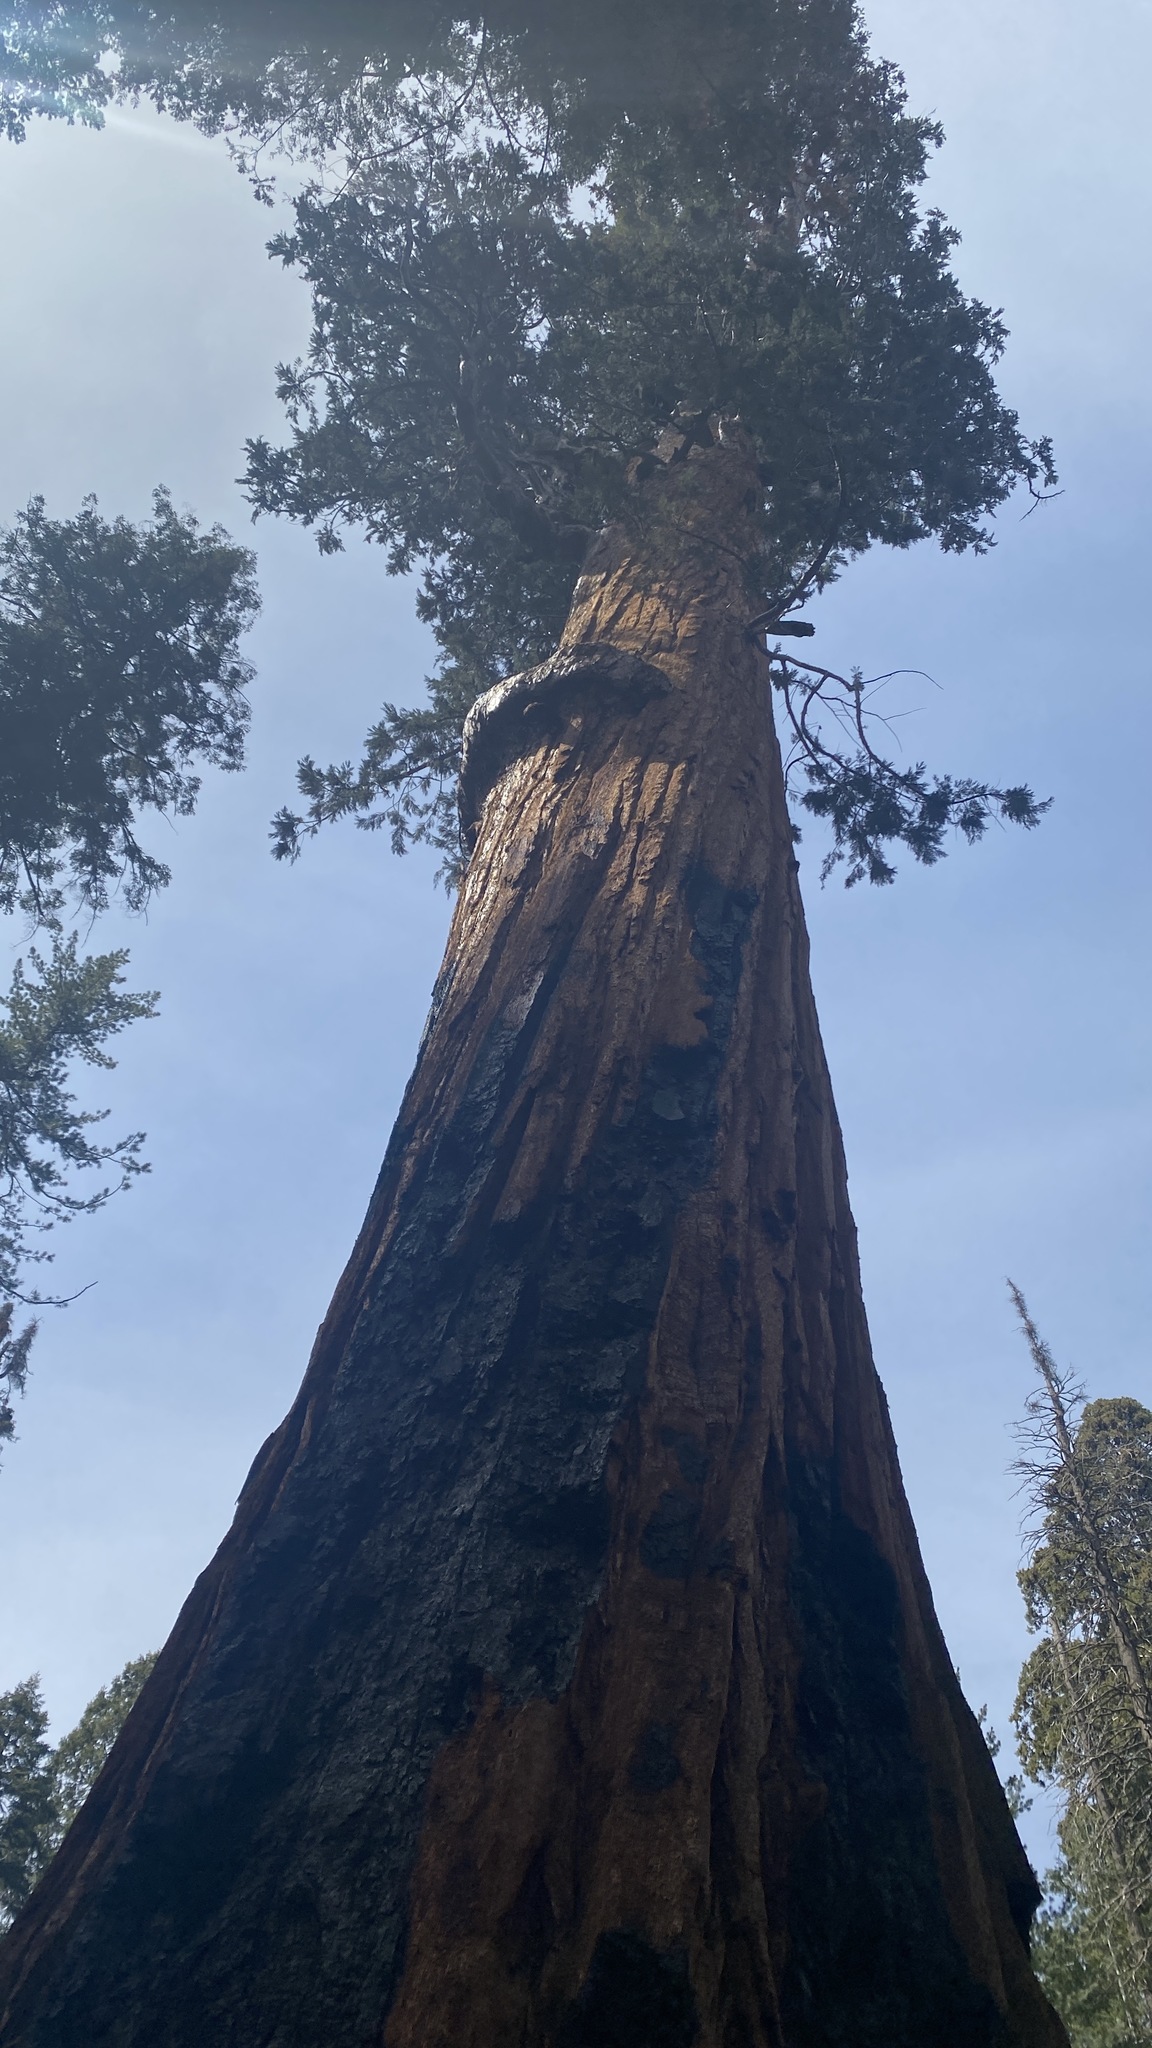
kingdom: Plantae
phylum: Tracheophyta
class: Pinopsida
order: Pinales
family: Cupressaceae
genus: Sequoiadendron
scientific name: Sequoiadendron giganteum
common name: Wellingtonia
